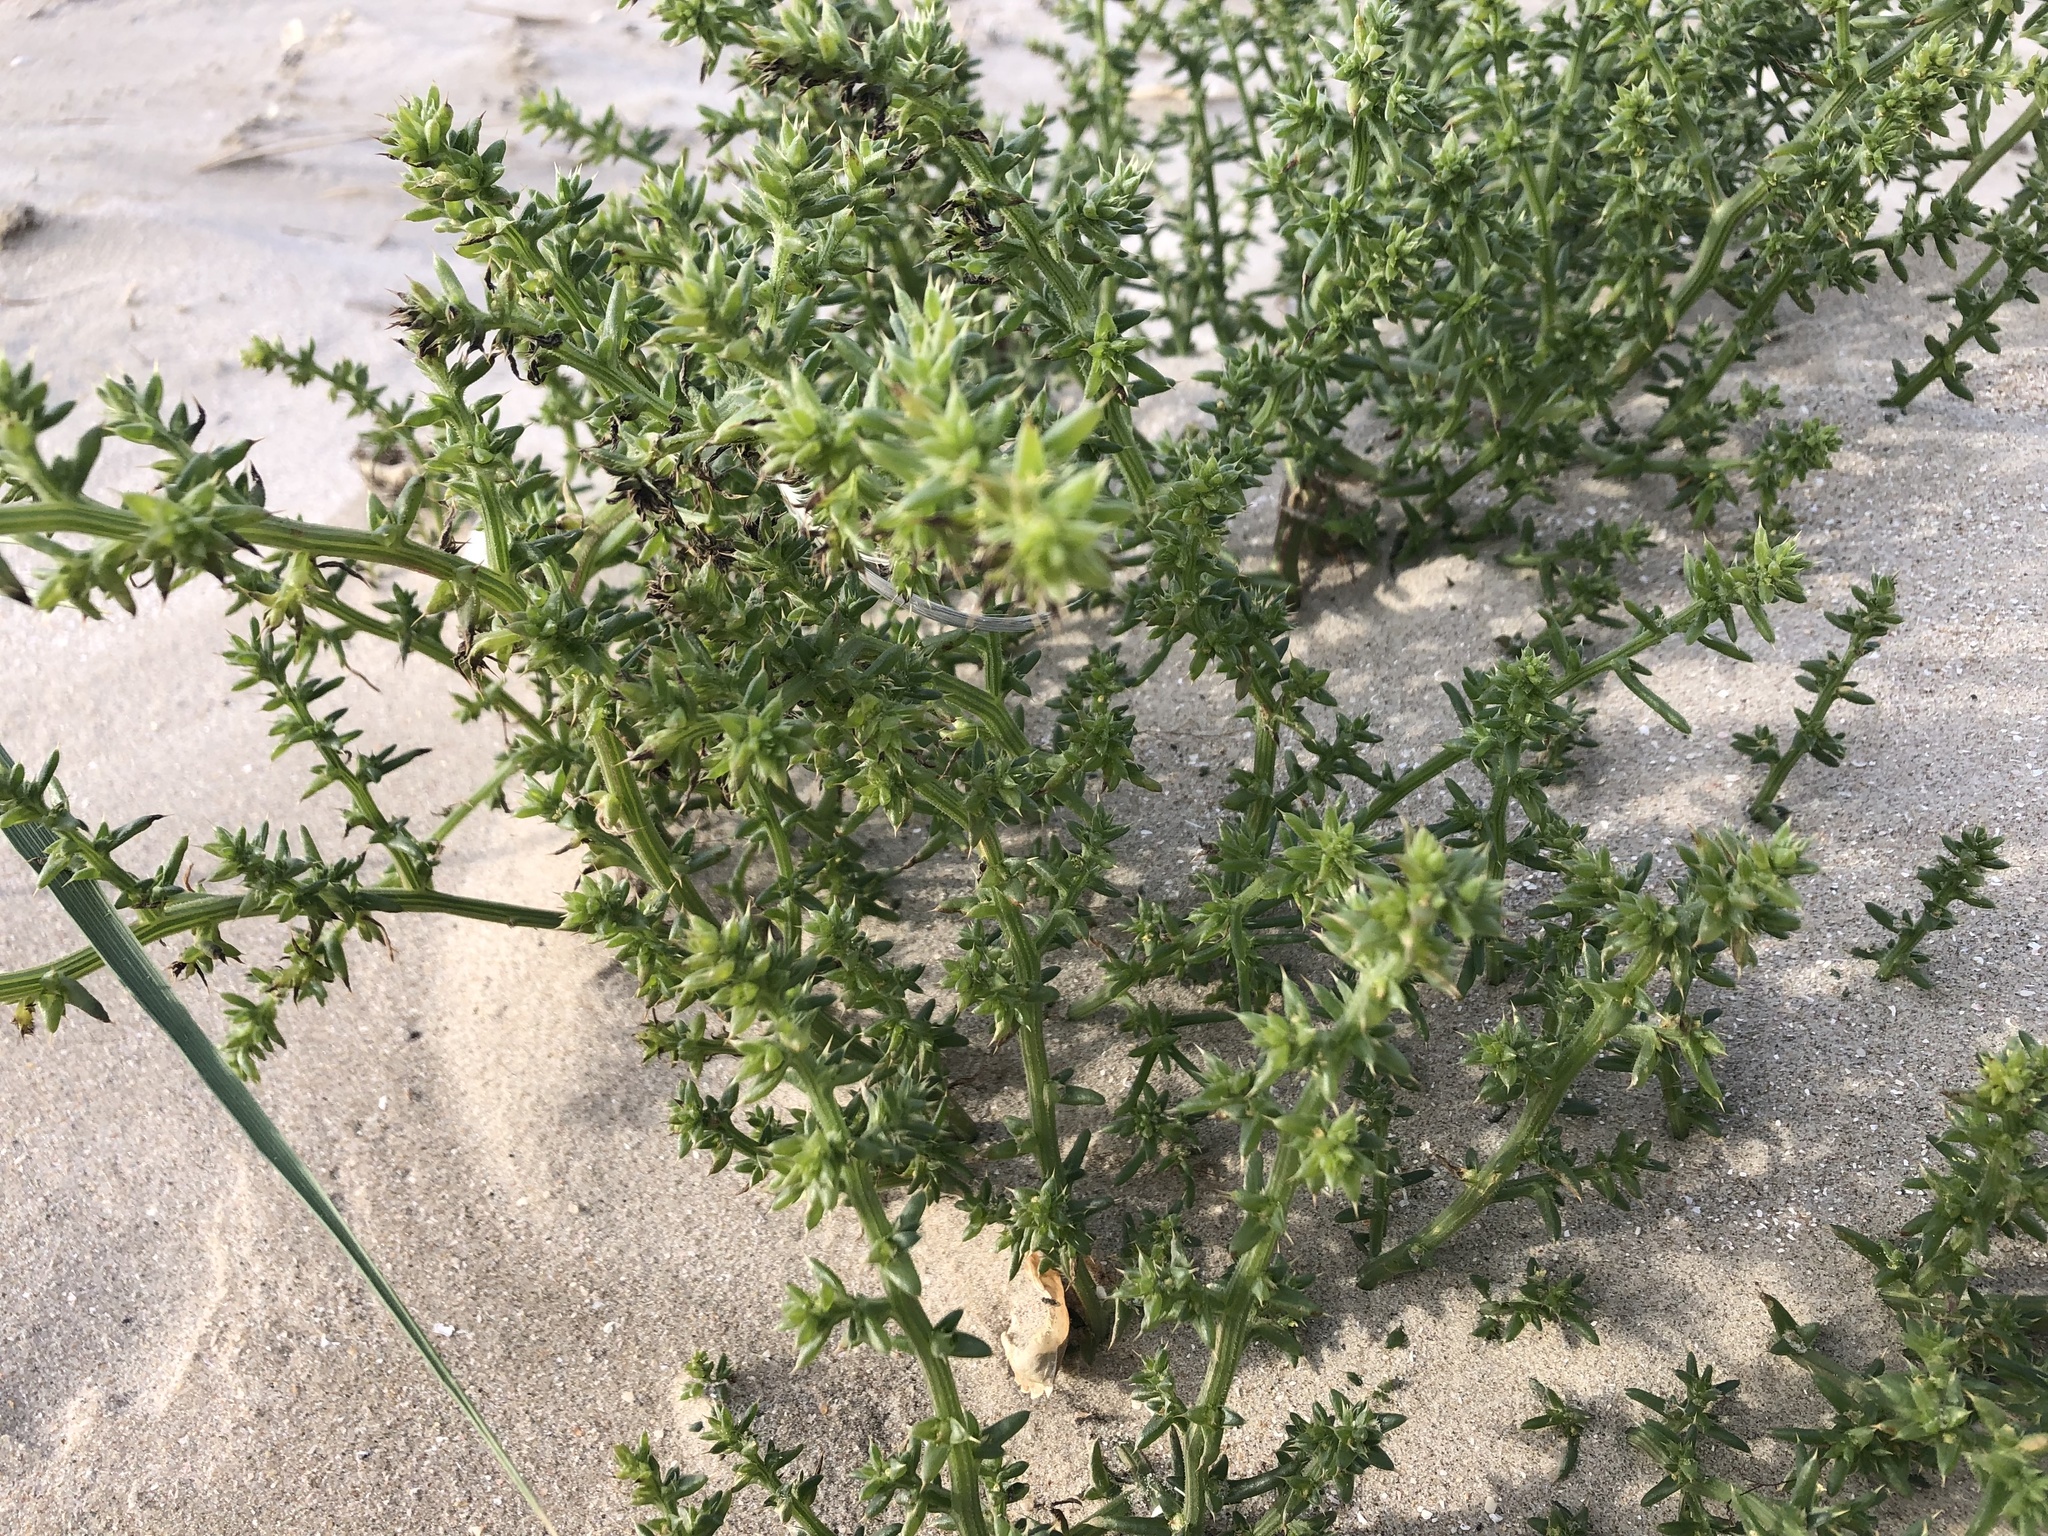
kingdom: Plantae
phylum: Tracheophyta
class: Magnoliopsida
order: Caryophyllales
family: Amaranthaceae
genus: Salsola
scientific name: Salsola kali
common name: Saltwort
